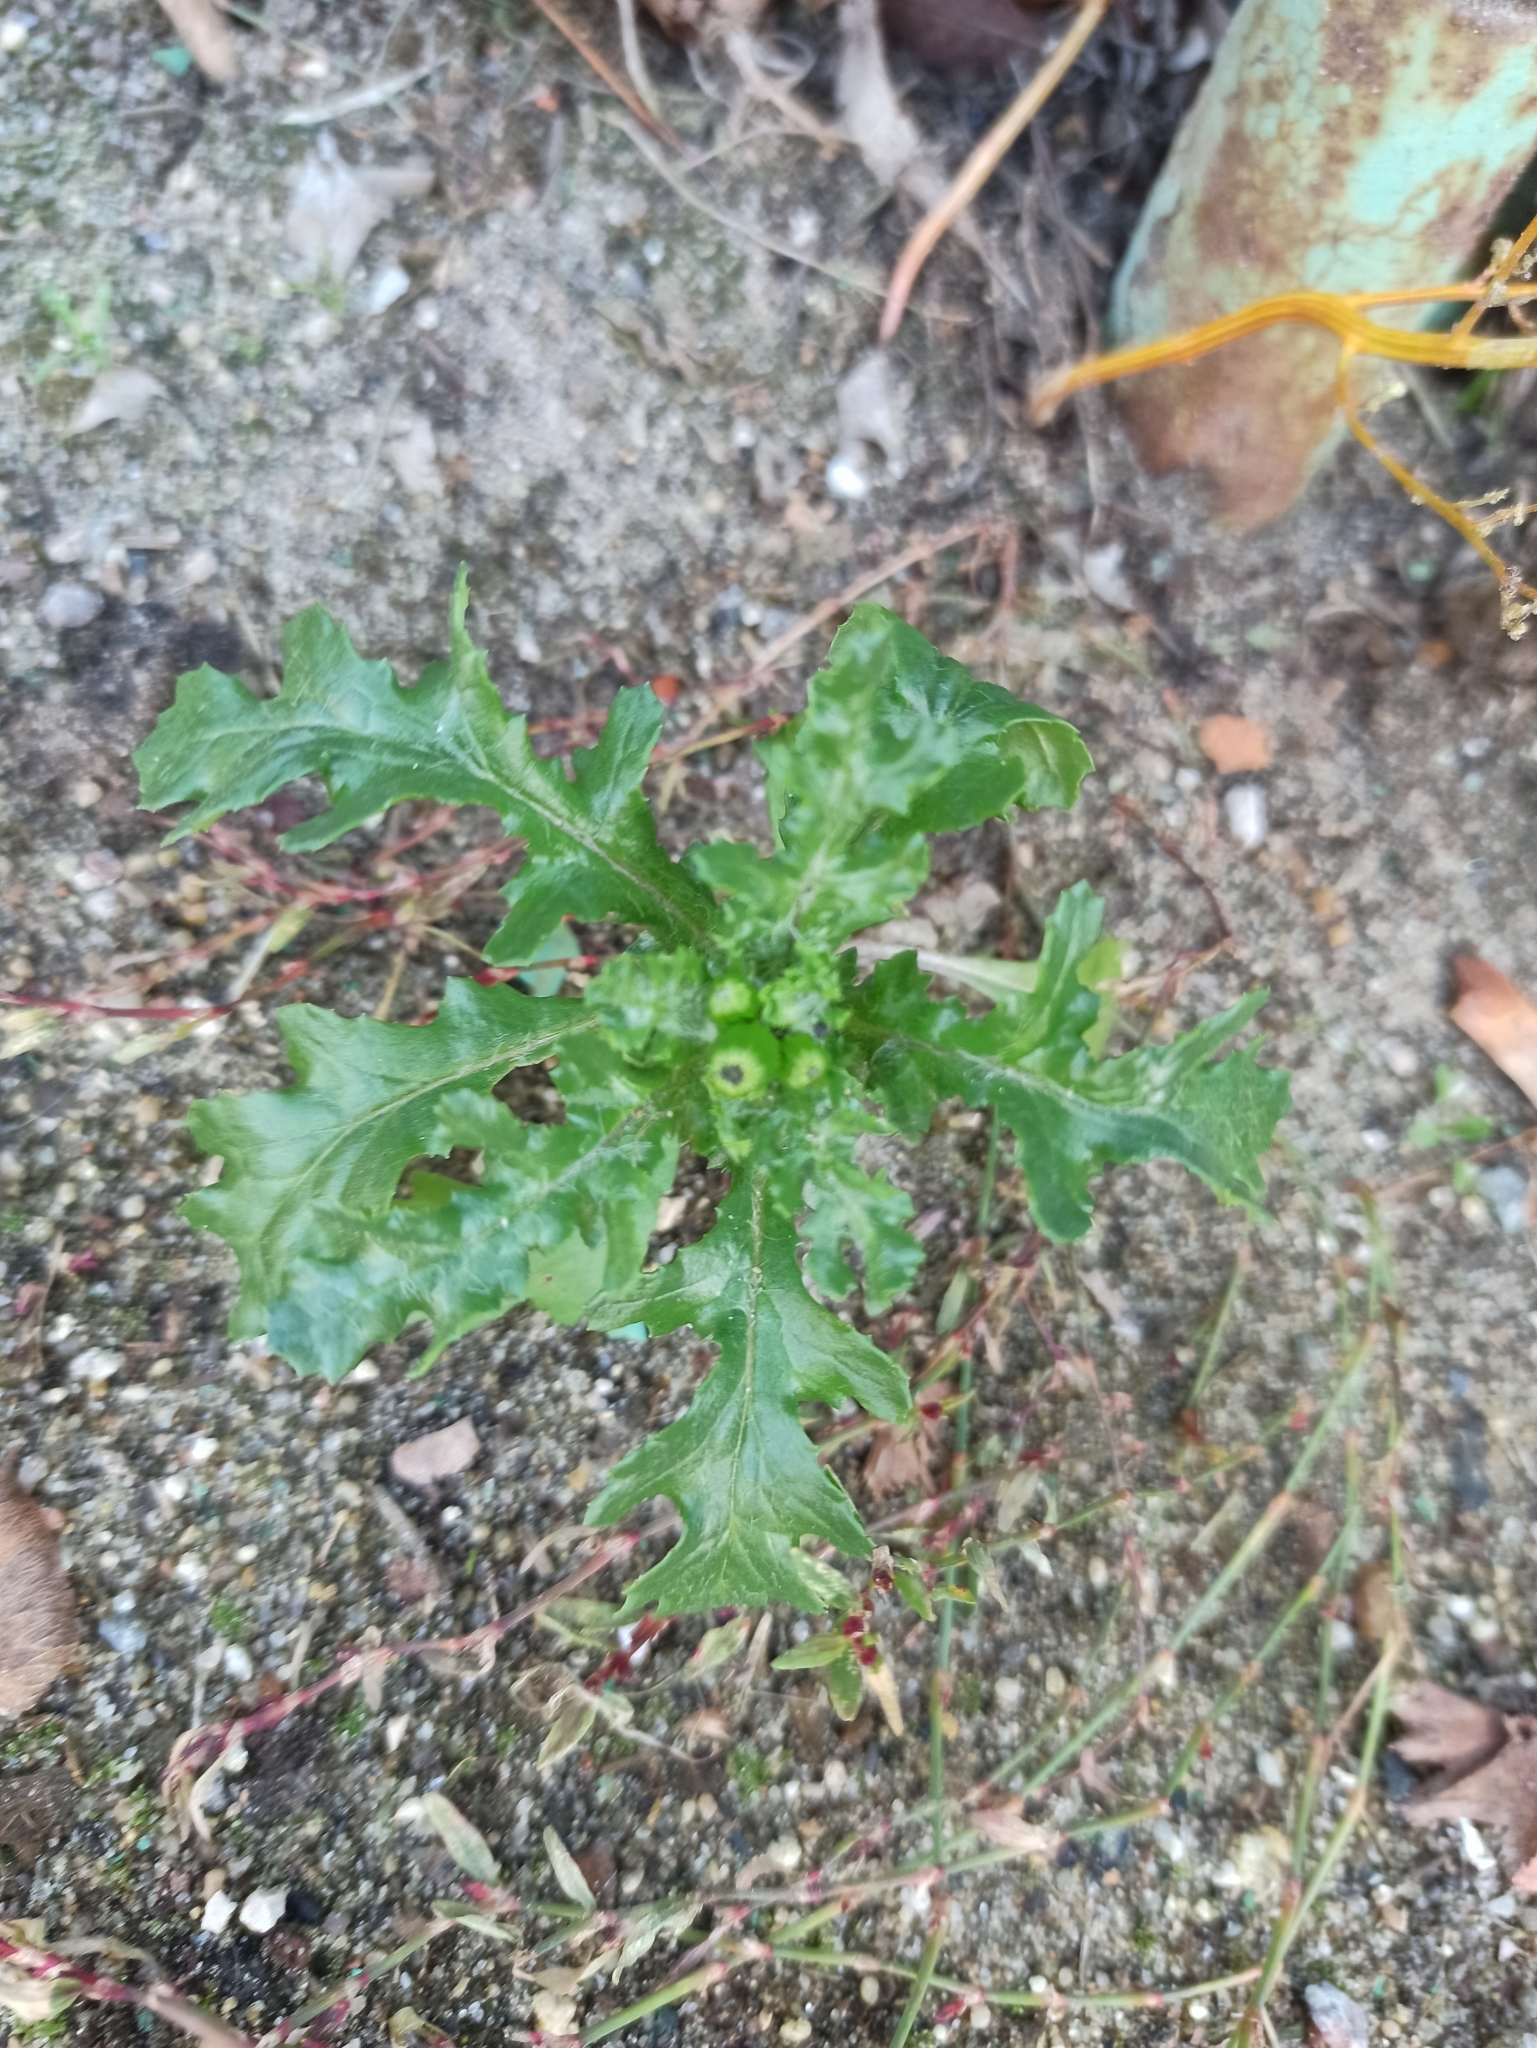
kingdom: Plantae
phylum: Tracheophyta
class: Magnoliopsida
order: Asterales
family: Asteraceae
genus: Senecio
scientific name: Senecio vulgaris
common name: Old-man-in-the-spring
